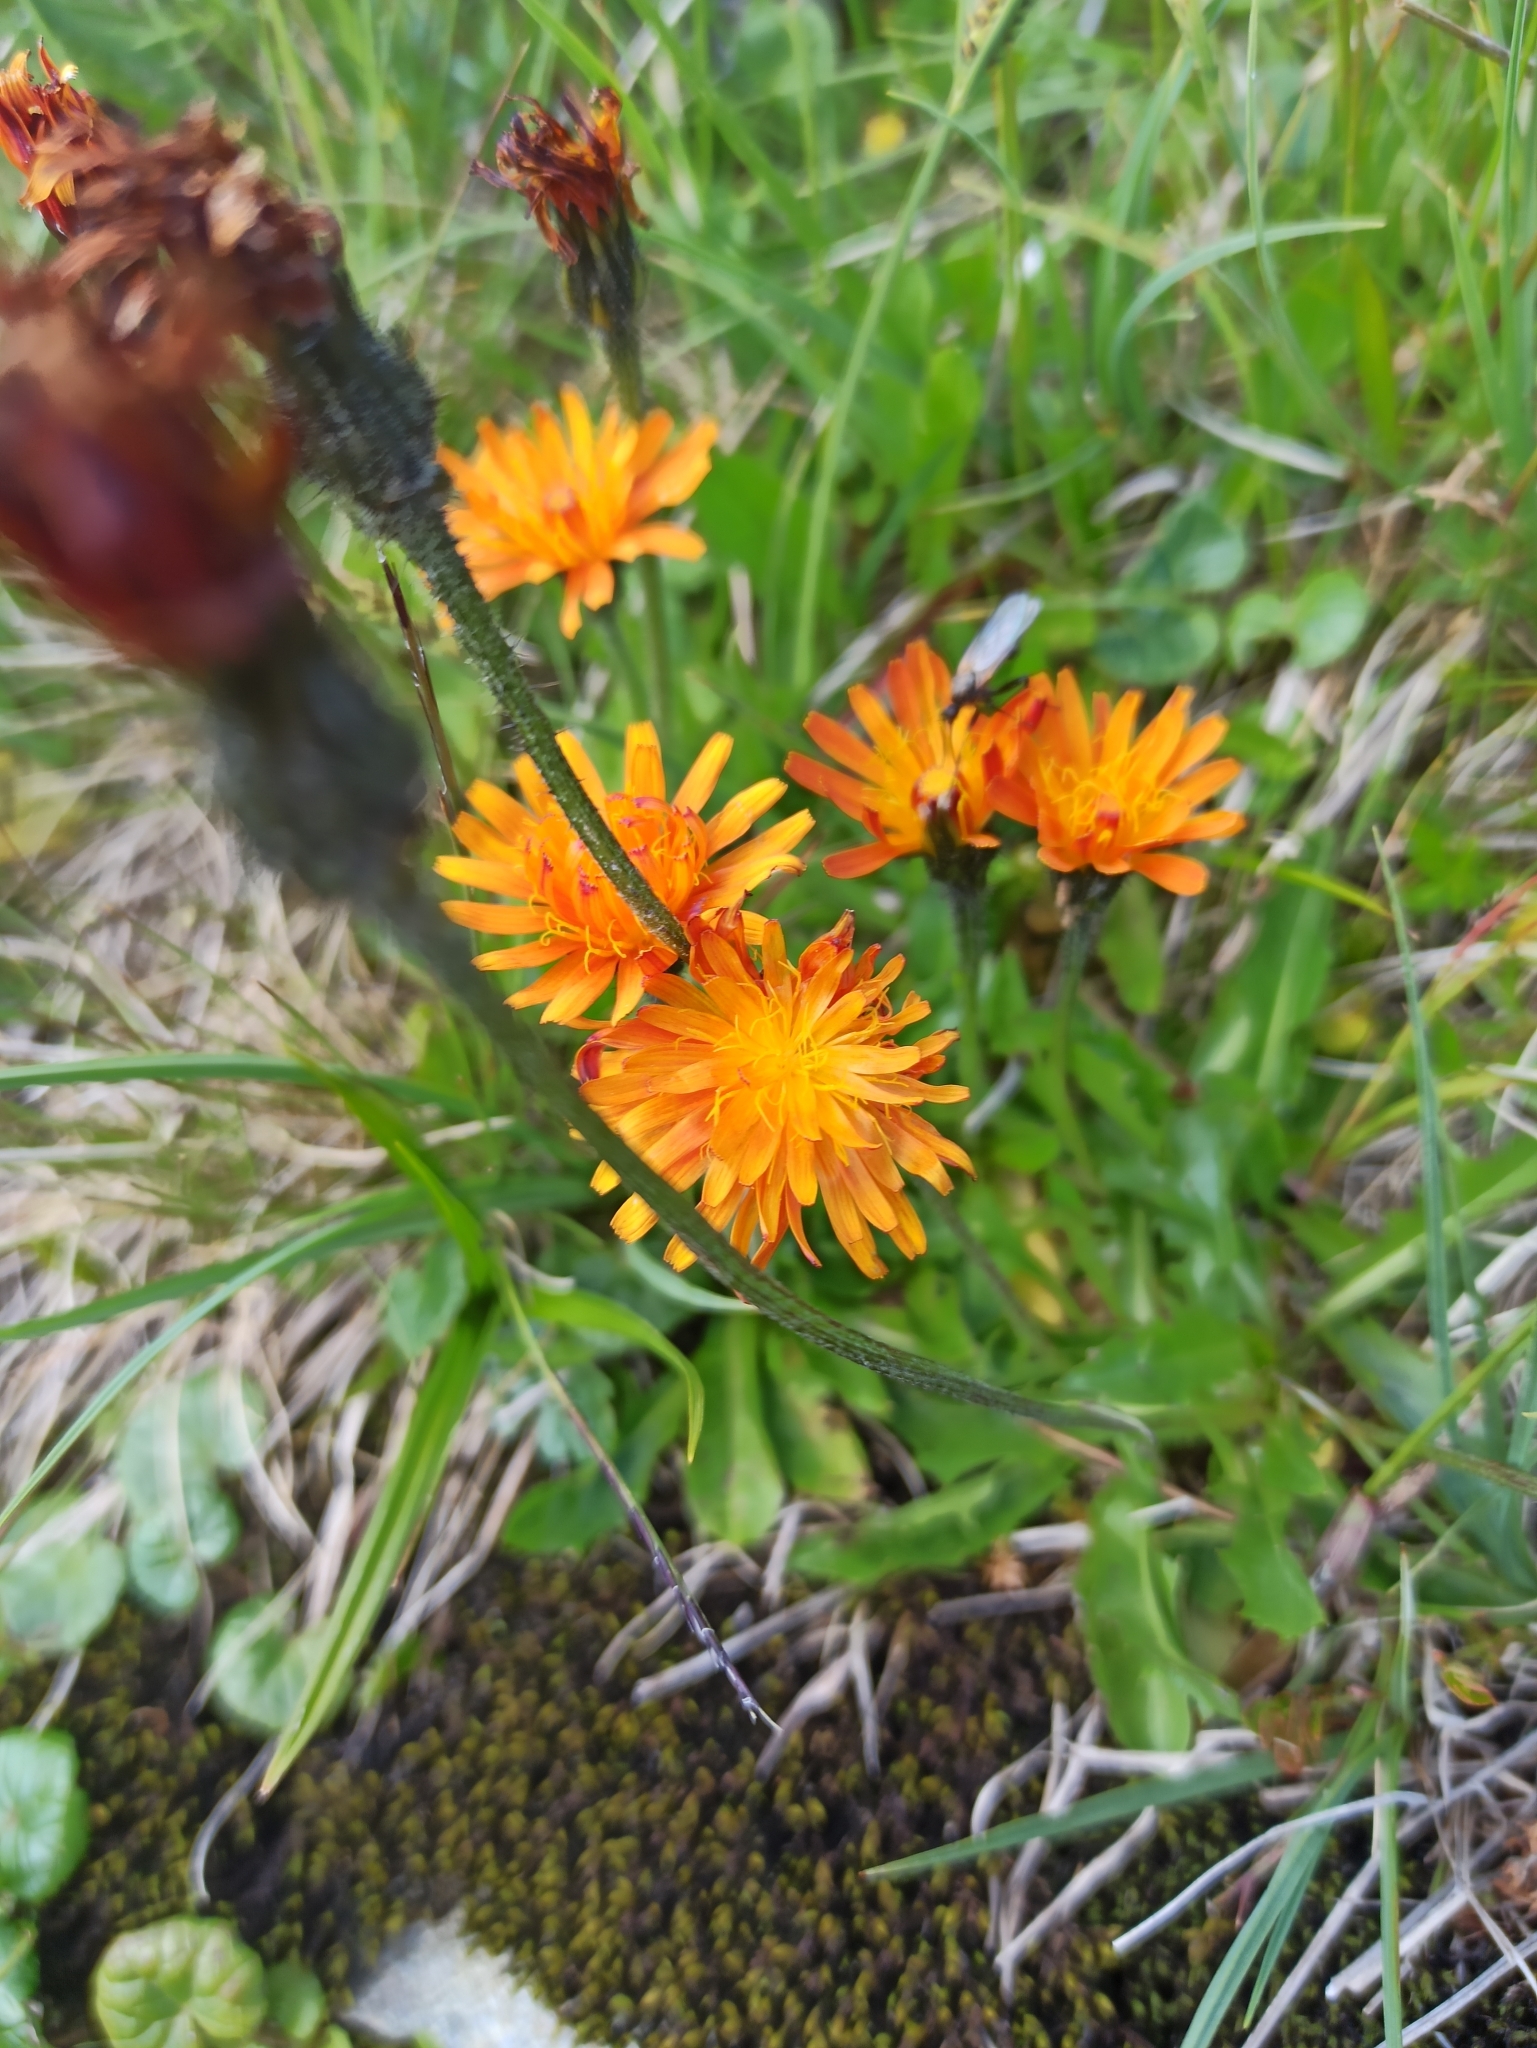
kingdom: Plantae
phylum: Tracheophyta
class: Magnoliopsida
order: Asterales
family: Asteraceae
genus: Crepis
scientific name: Crepis aurea
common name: Golden hawk's-beard
